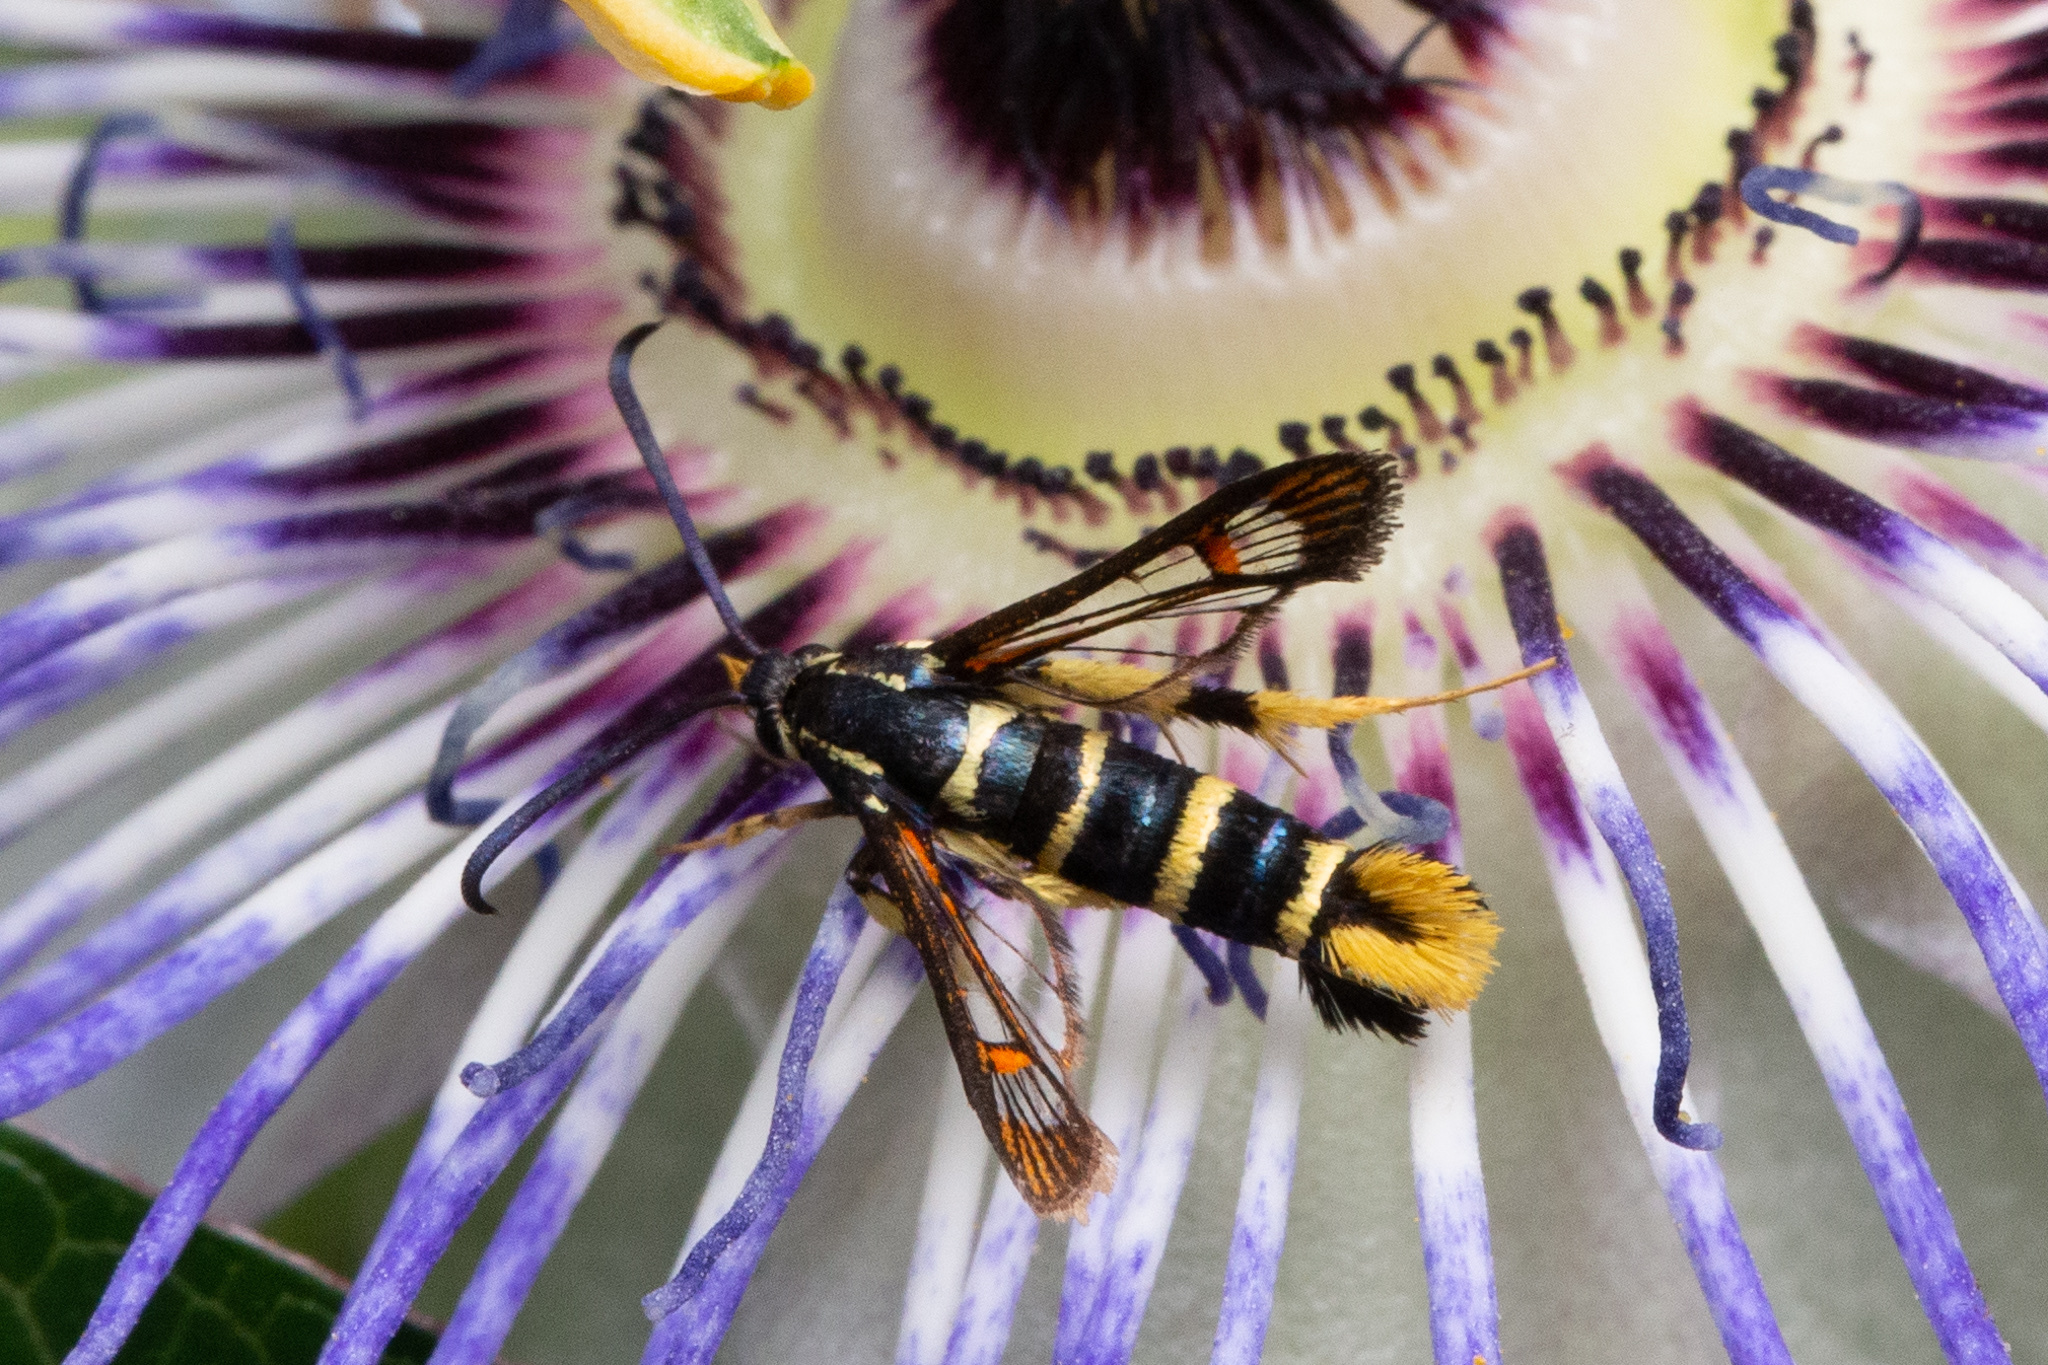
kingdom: Animalia
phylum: Arthropoda
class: Insecta
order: Lepidoptera
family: Sesiidae
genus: Synanthedon
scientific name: Synanthedon vespiformis
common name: Yellow-legged clearwing
